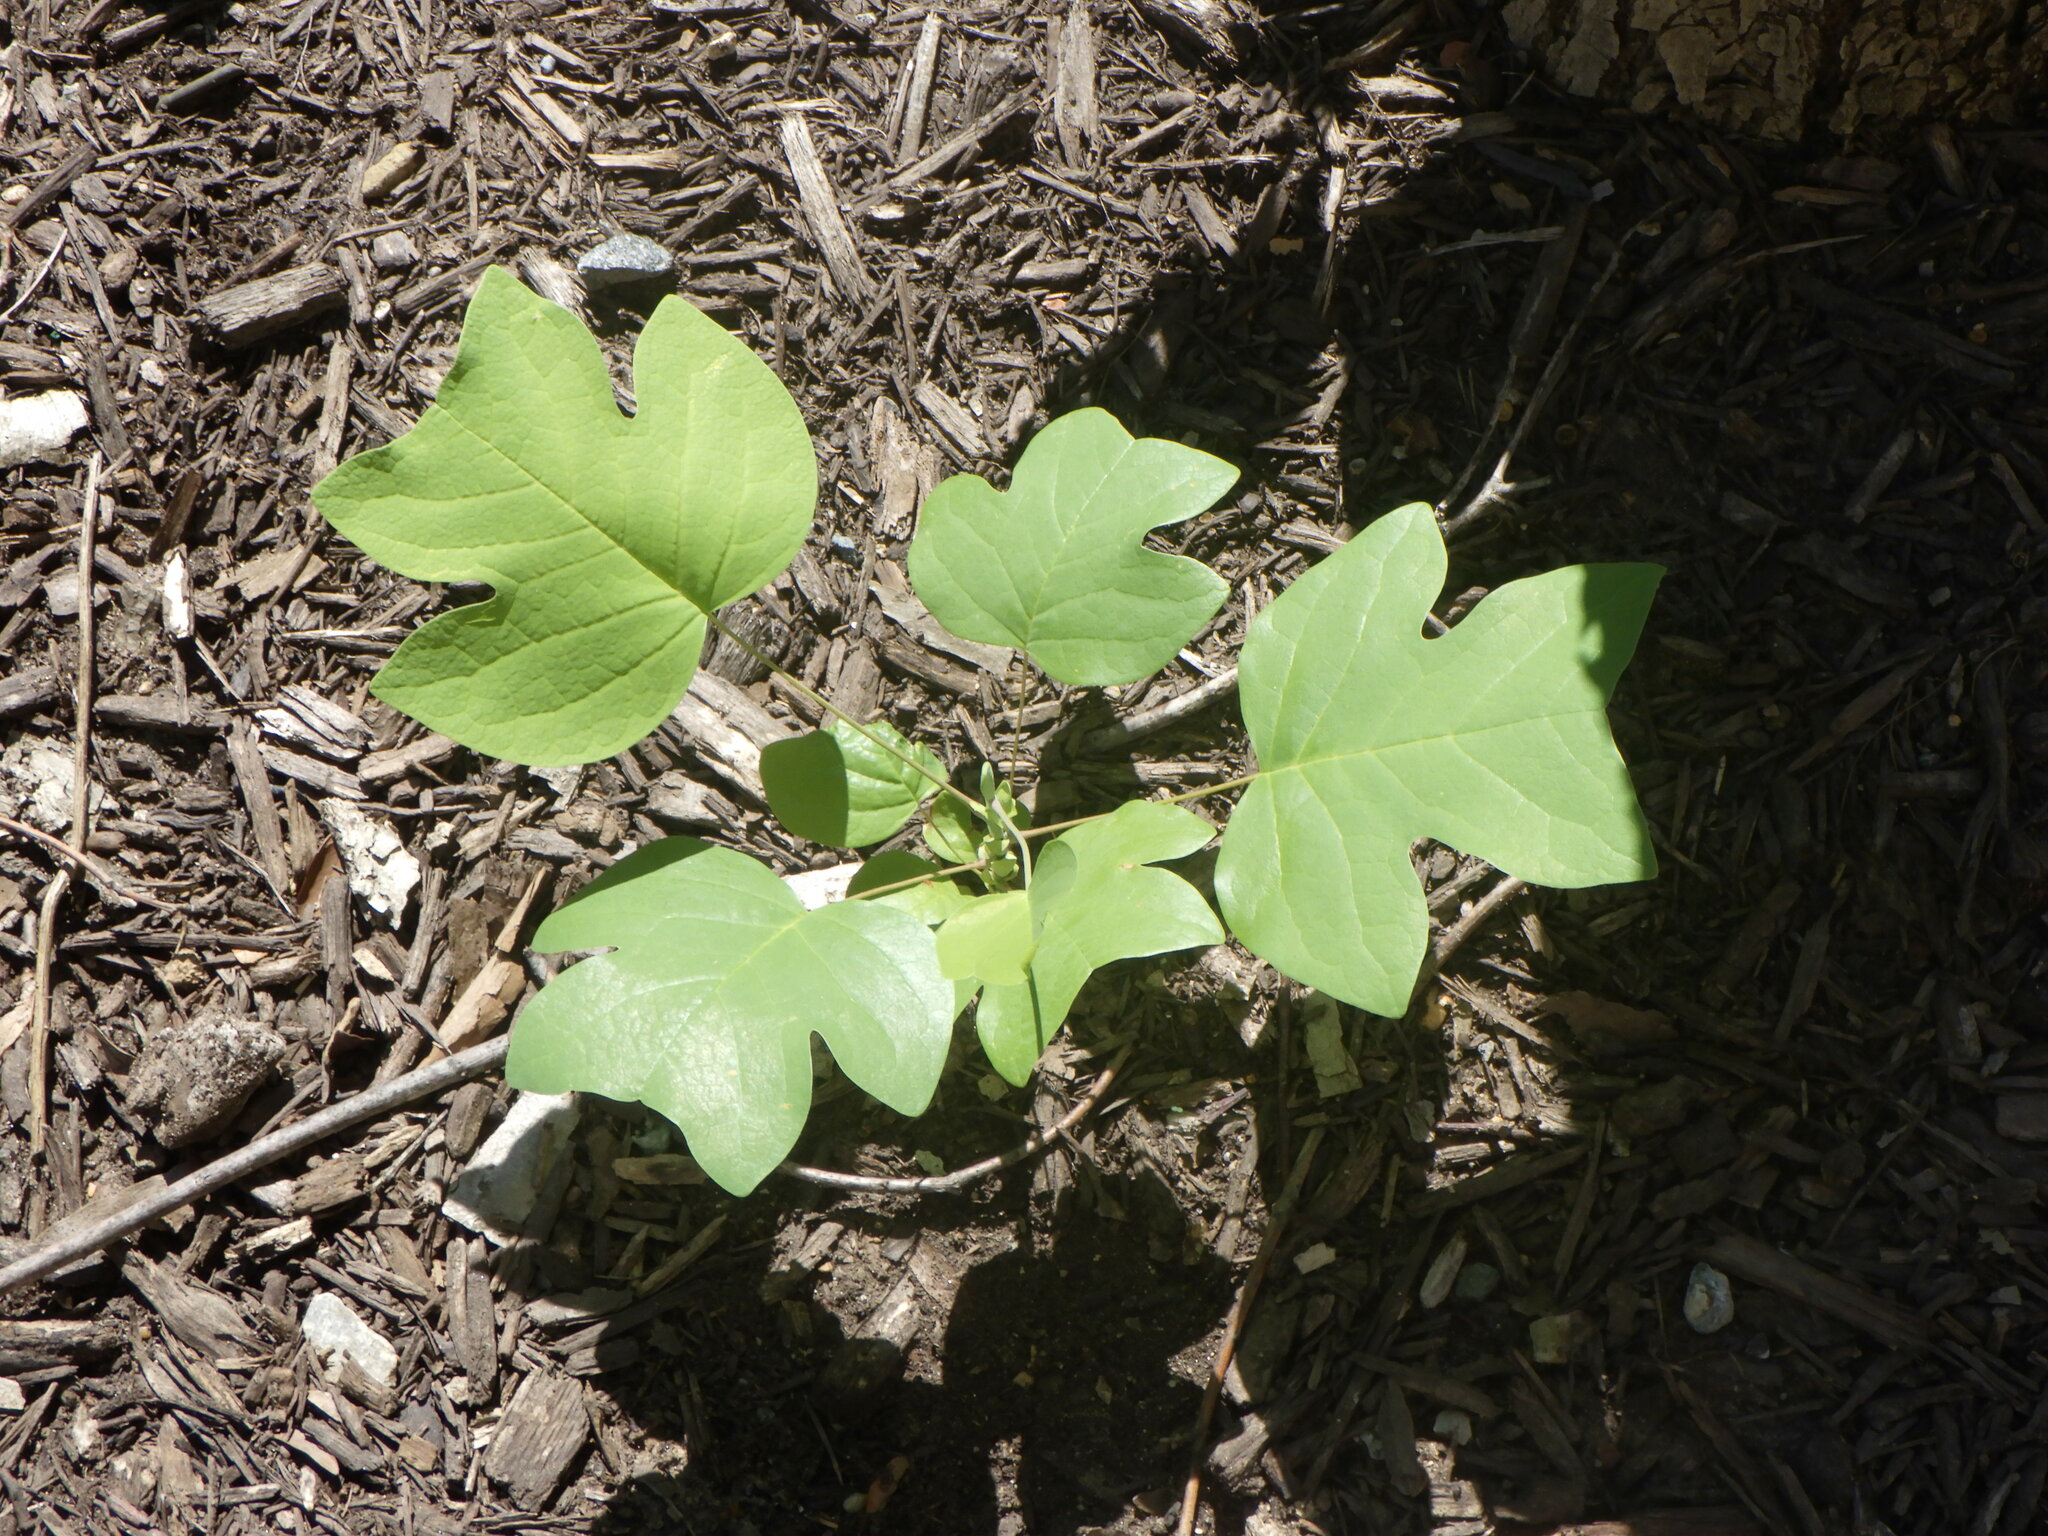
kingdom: Plantae
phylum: Tracheophyta
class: Magnoliopsida
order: Magnoliales
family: Magnoliaceae
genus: Liriodendron
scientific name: Liriodendron tulipifera
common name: Tulip tree
